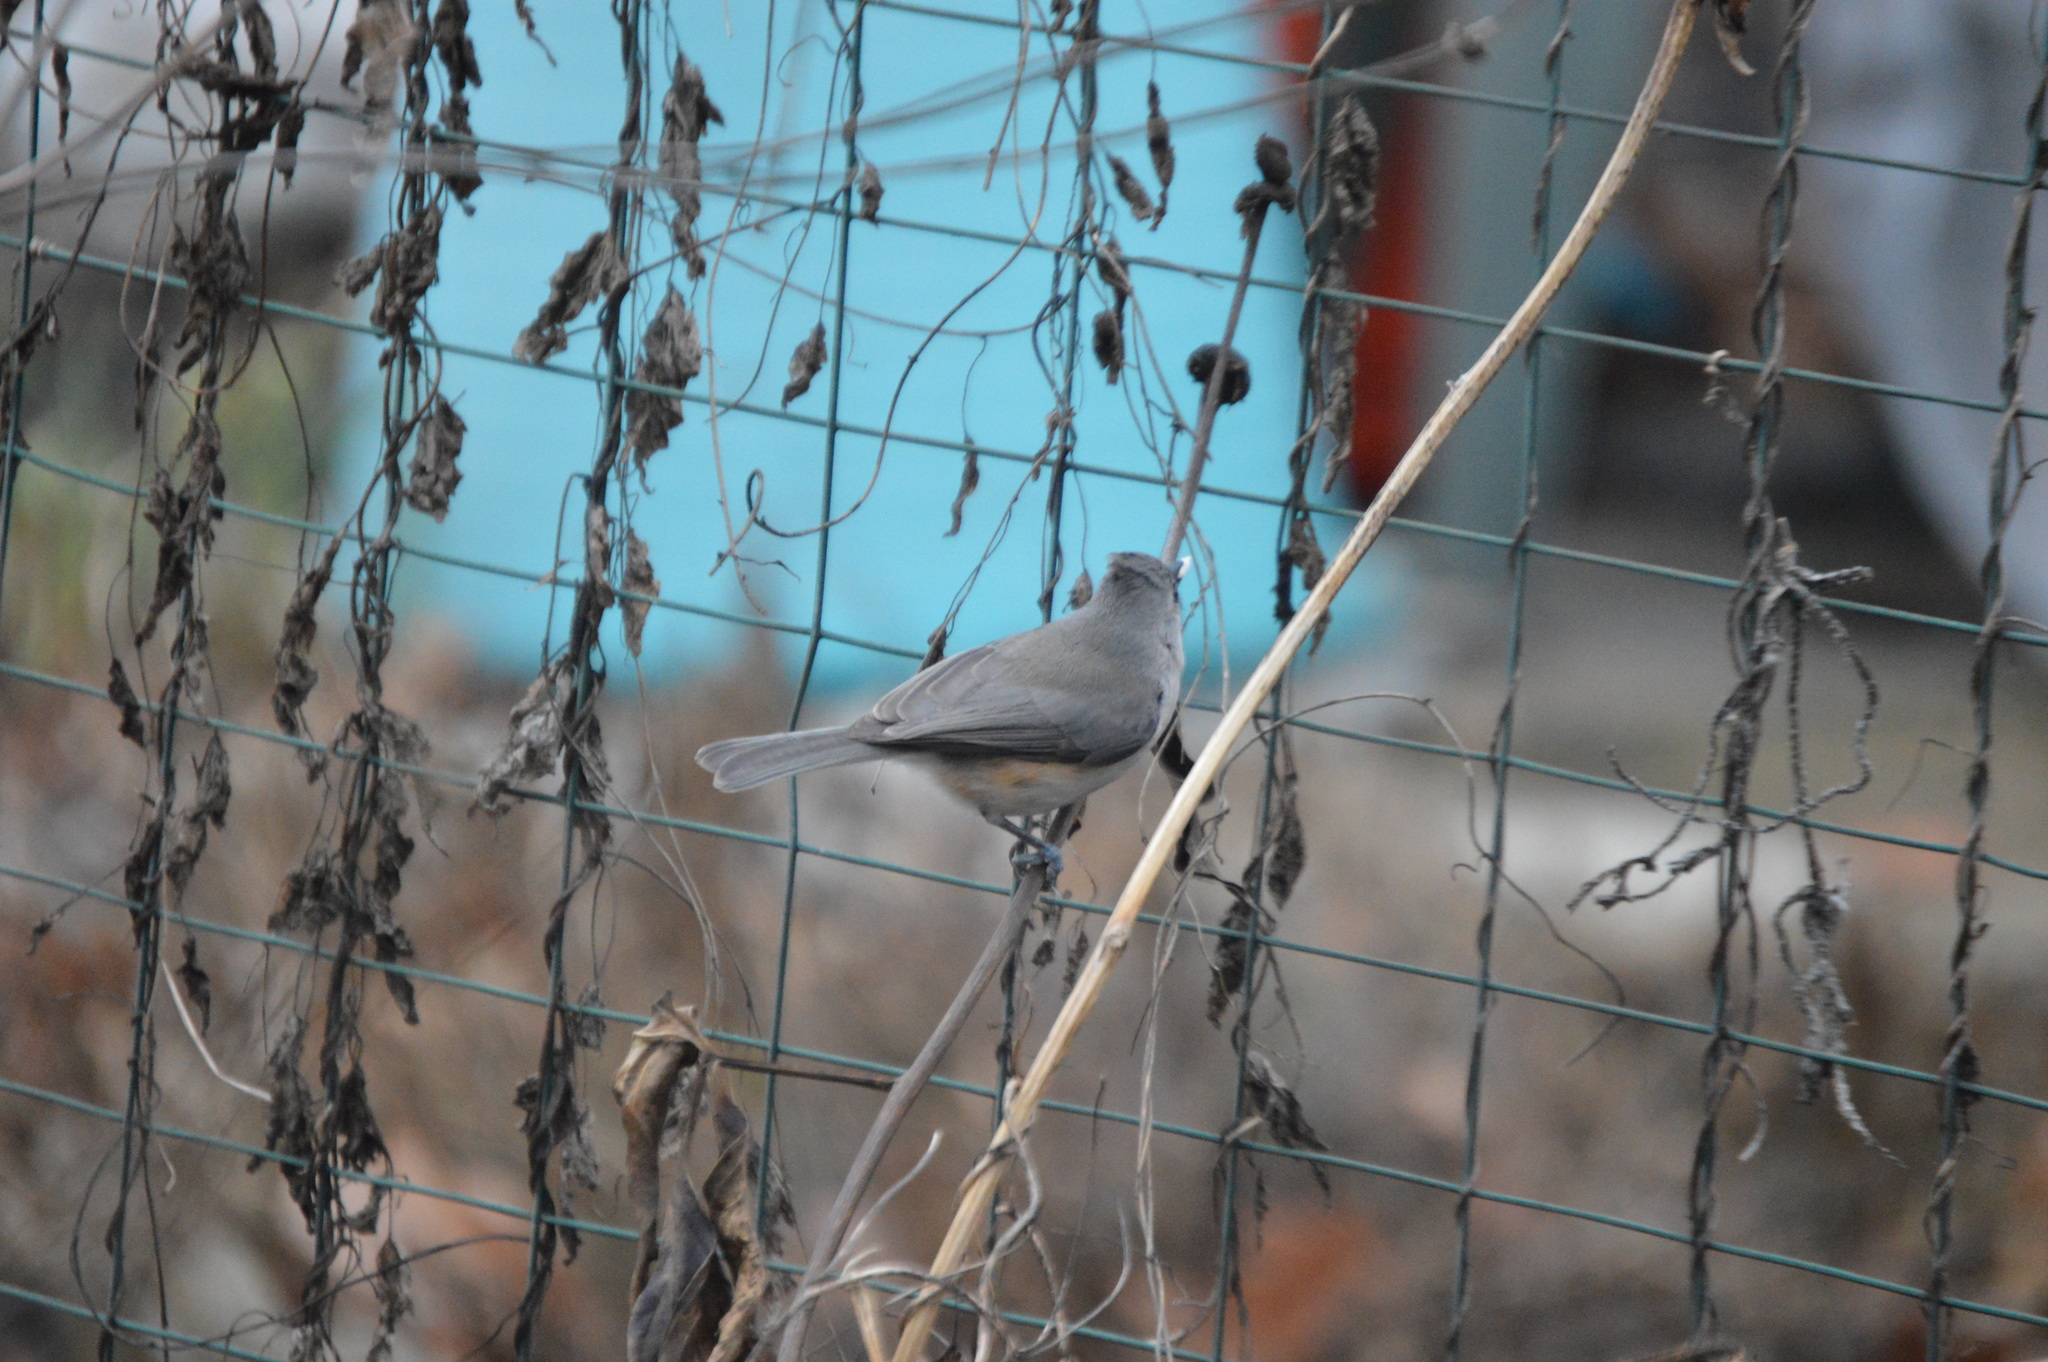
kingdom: Animalia
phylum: Chordata
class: Aves
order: Passeriformes
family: Paridae
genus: Baeolophus
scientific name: Baeolophus bicolor
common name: Tufted titmouse
